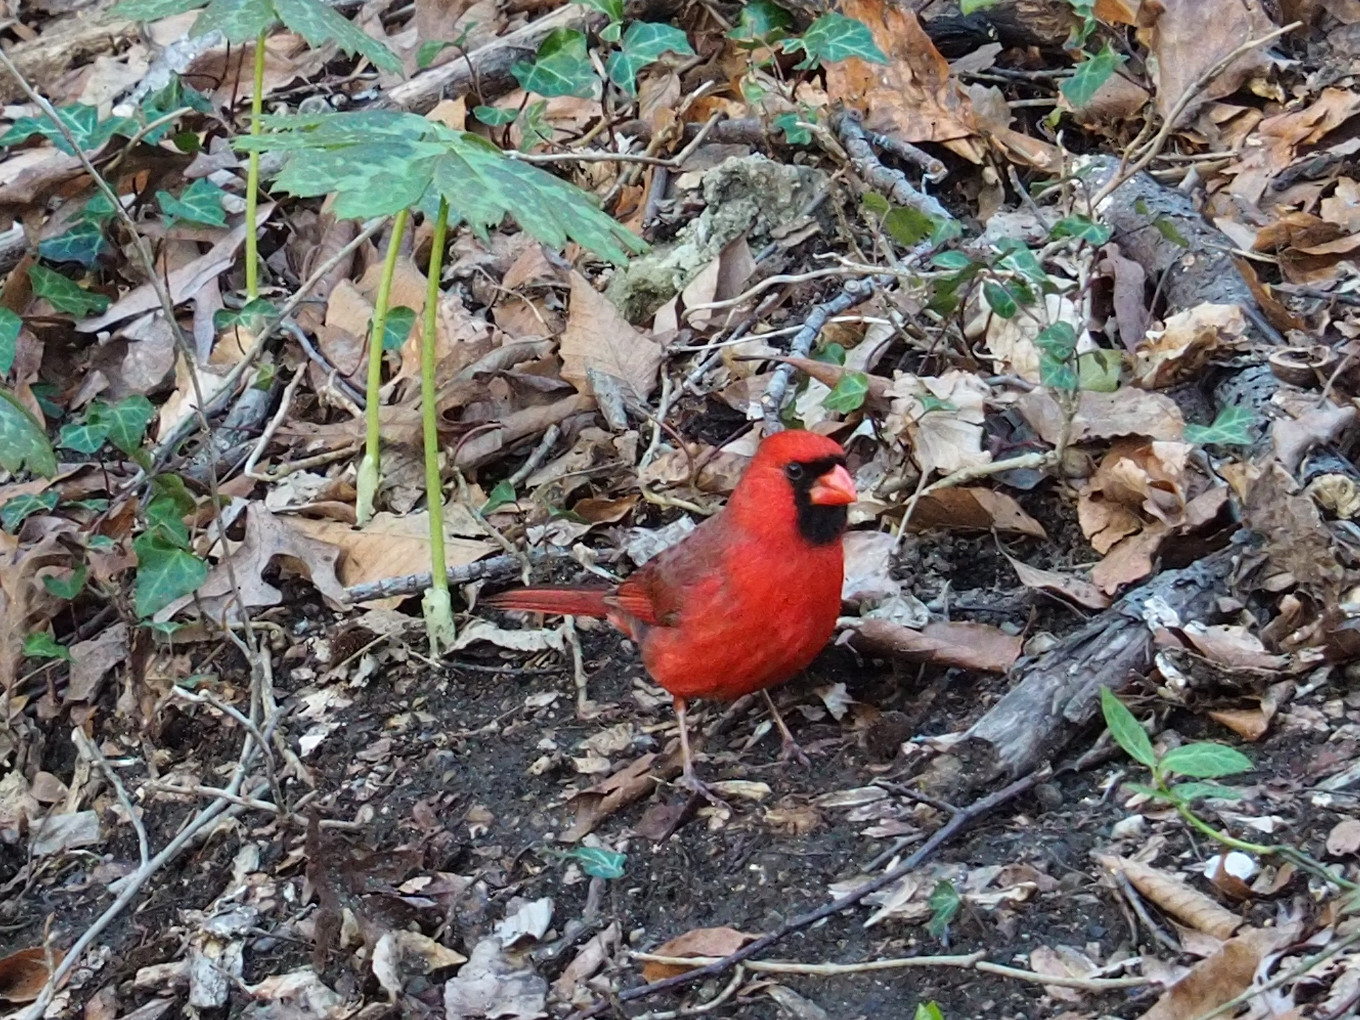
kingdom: Animalia
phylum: Chordata
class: Aves
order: Passeriformes
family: Cardinalidae
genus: Cardinalis
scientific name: Cardinalis cardinalis
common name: Northern cardinal
